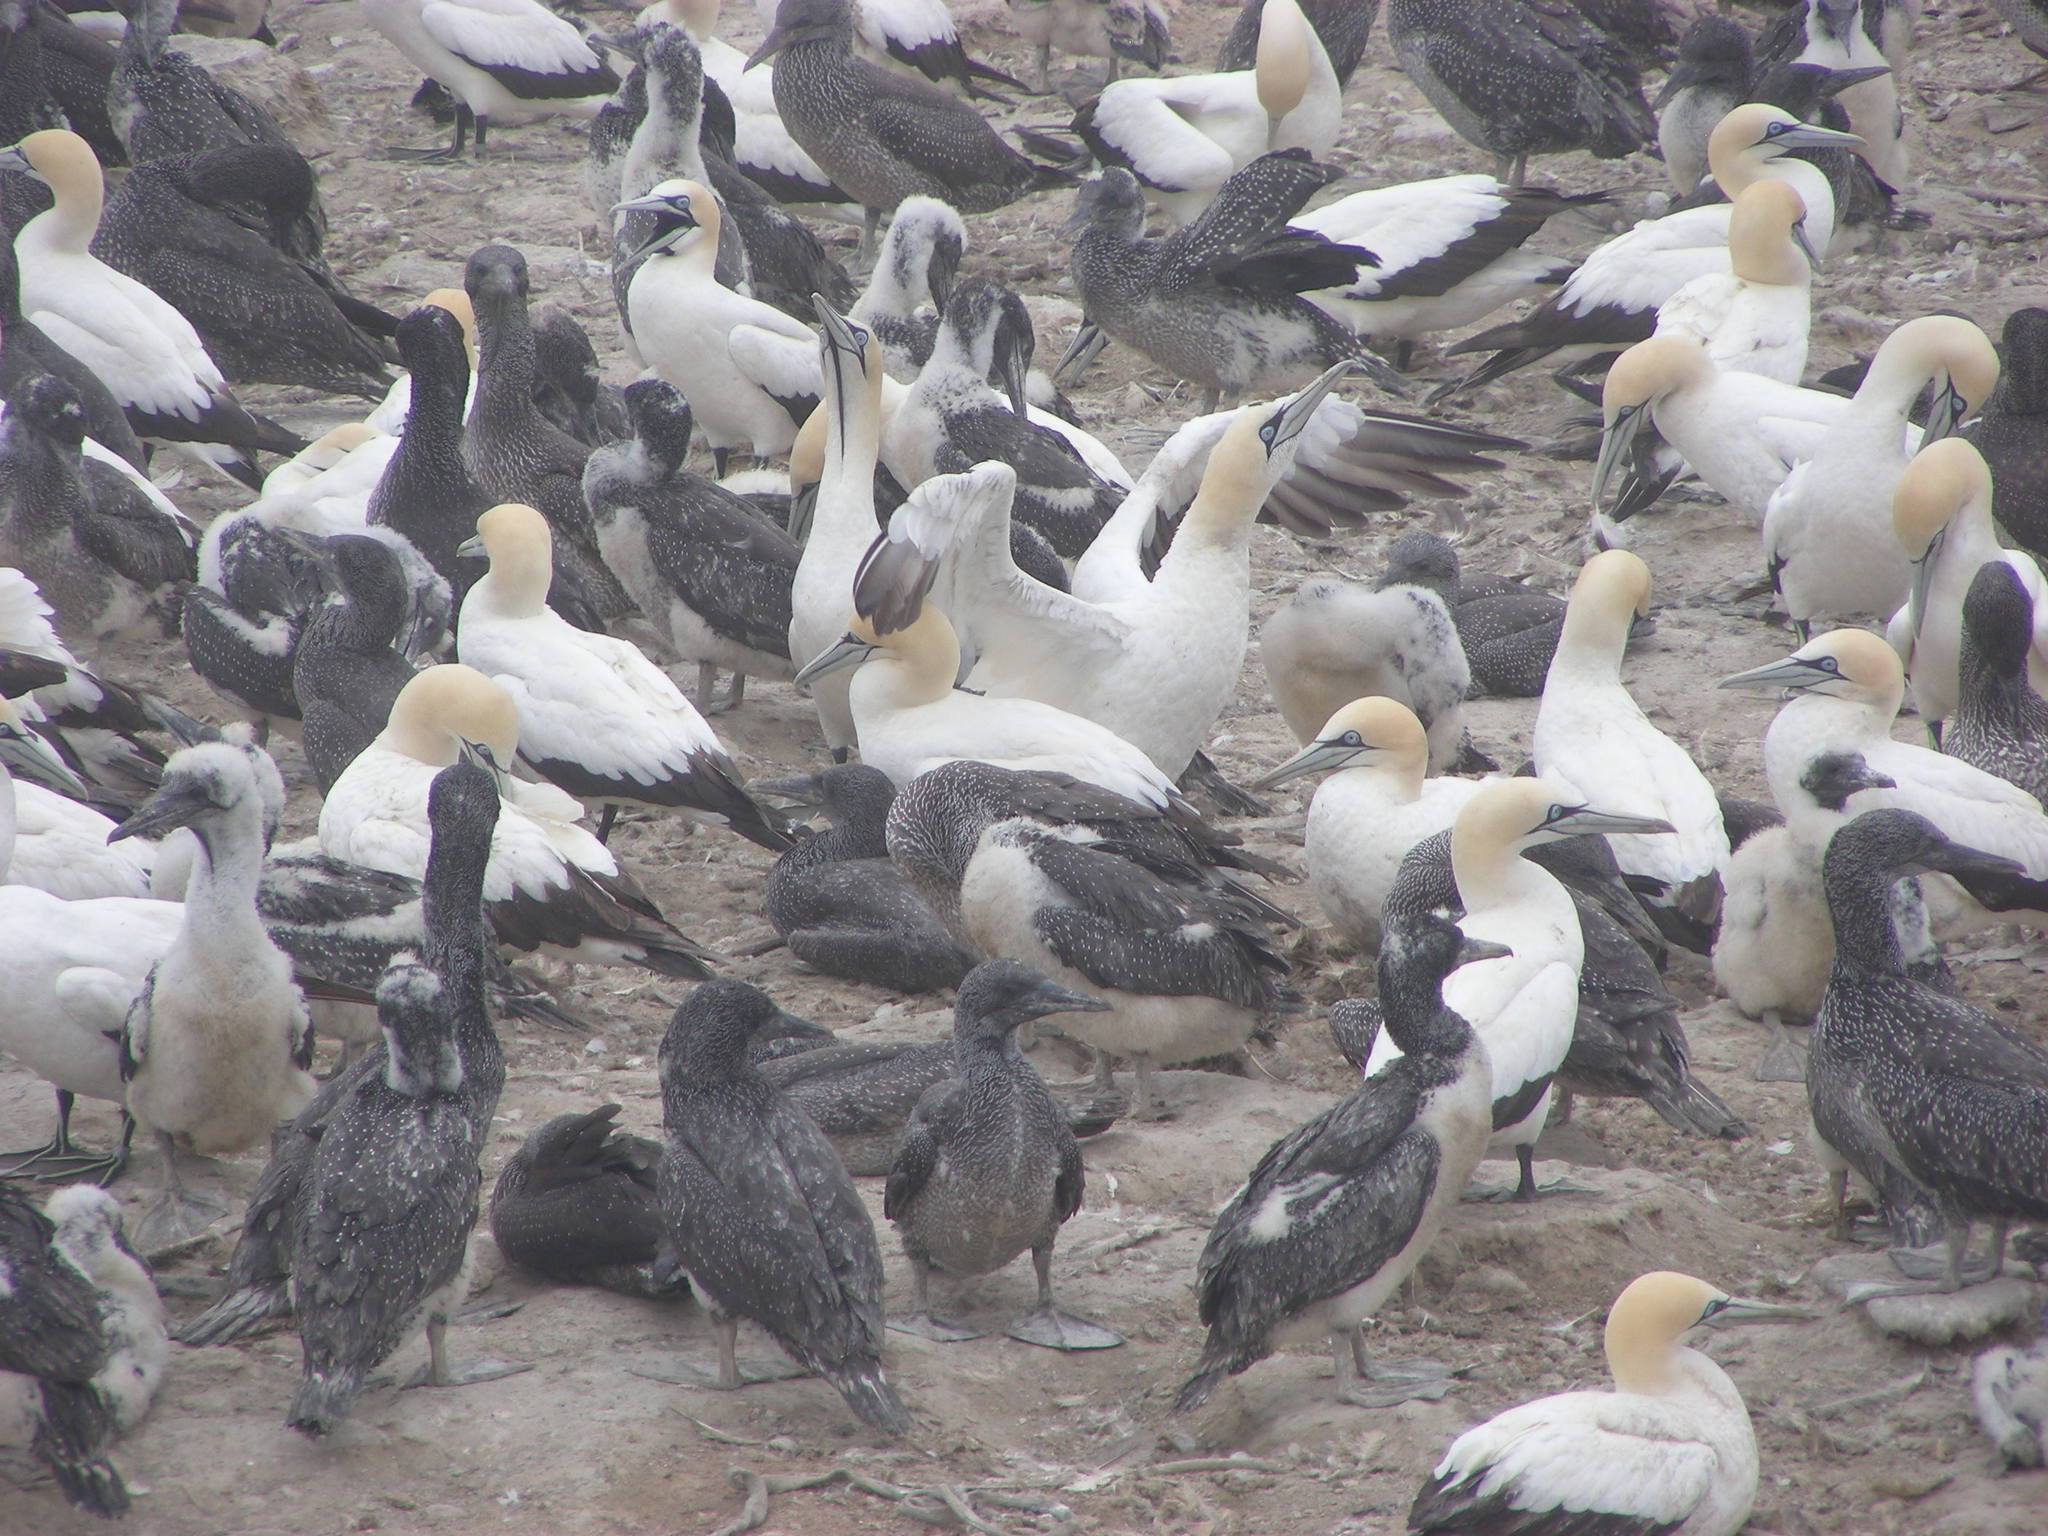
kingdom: Animalia
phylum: Chordata
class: Aves
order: Suliformes
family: Sulidae
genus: Morus
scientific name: Morus capensis
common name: Cape gannet
